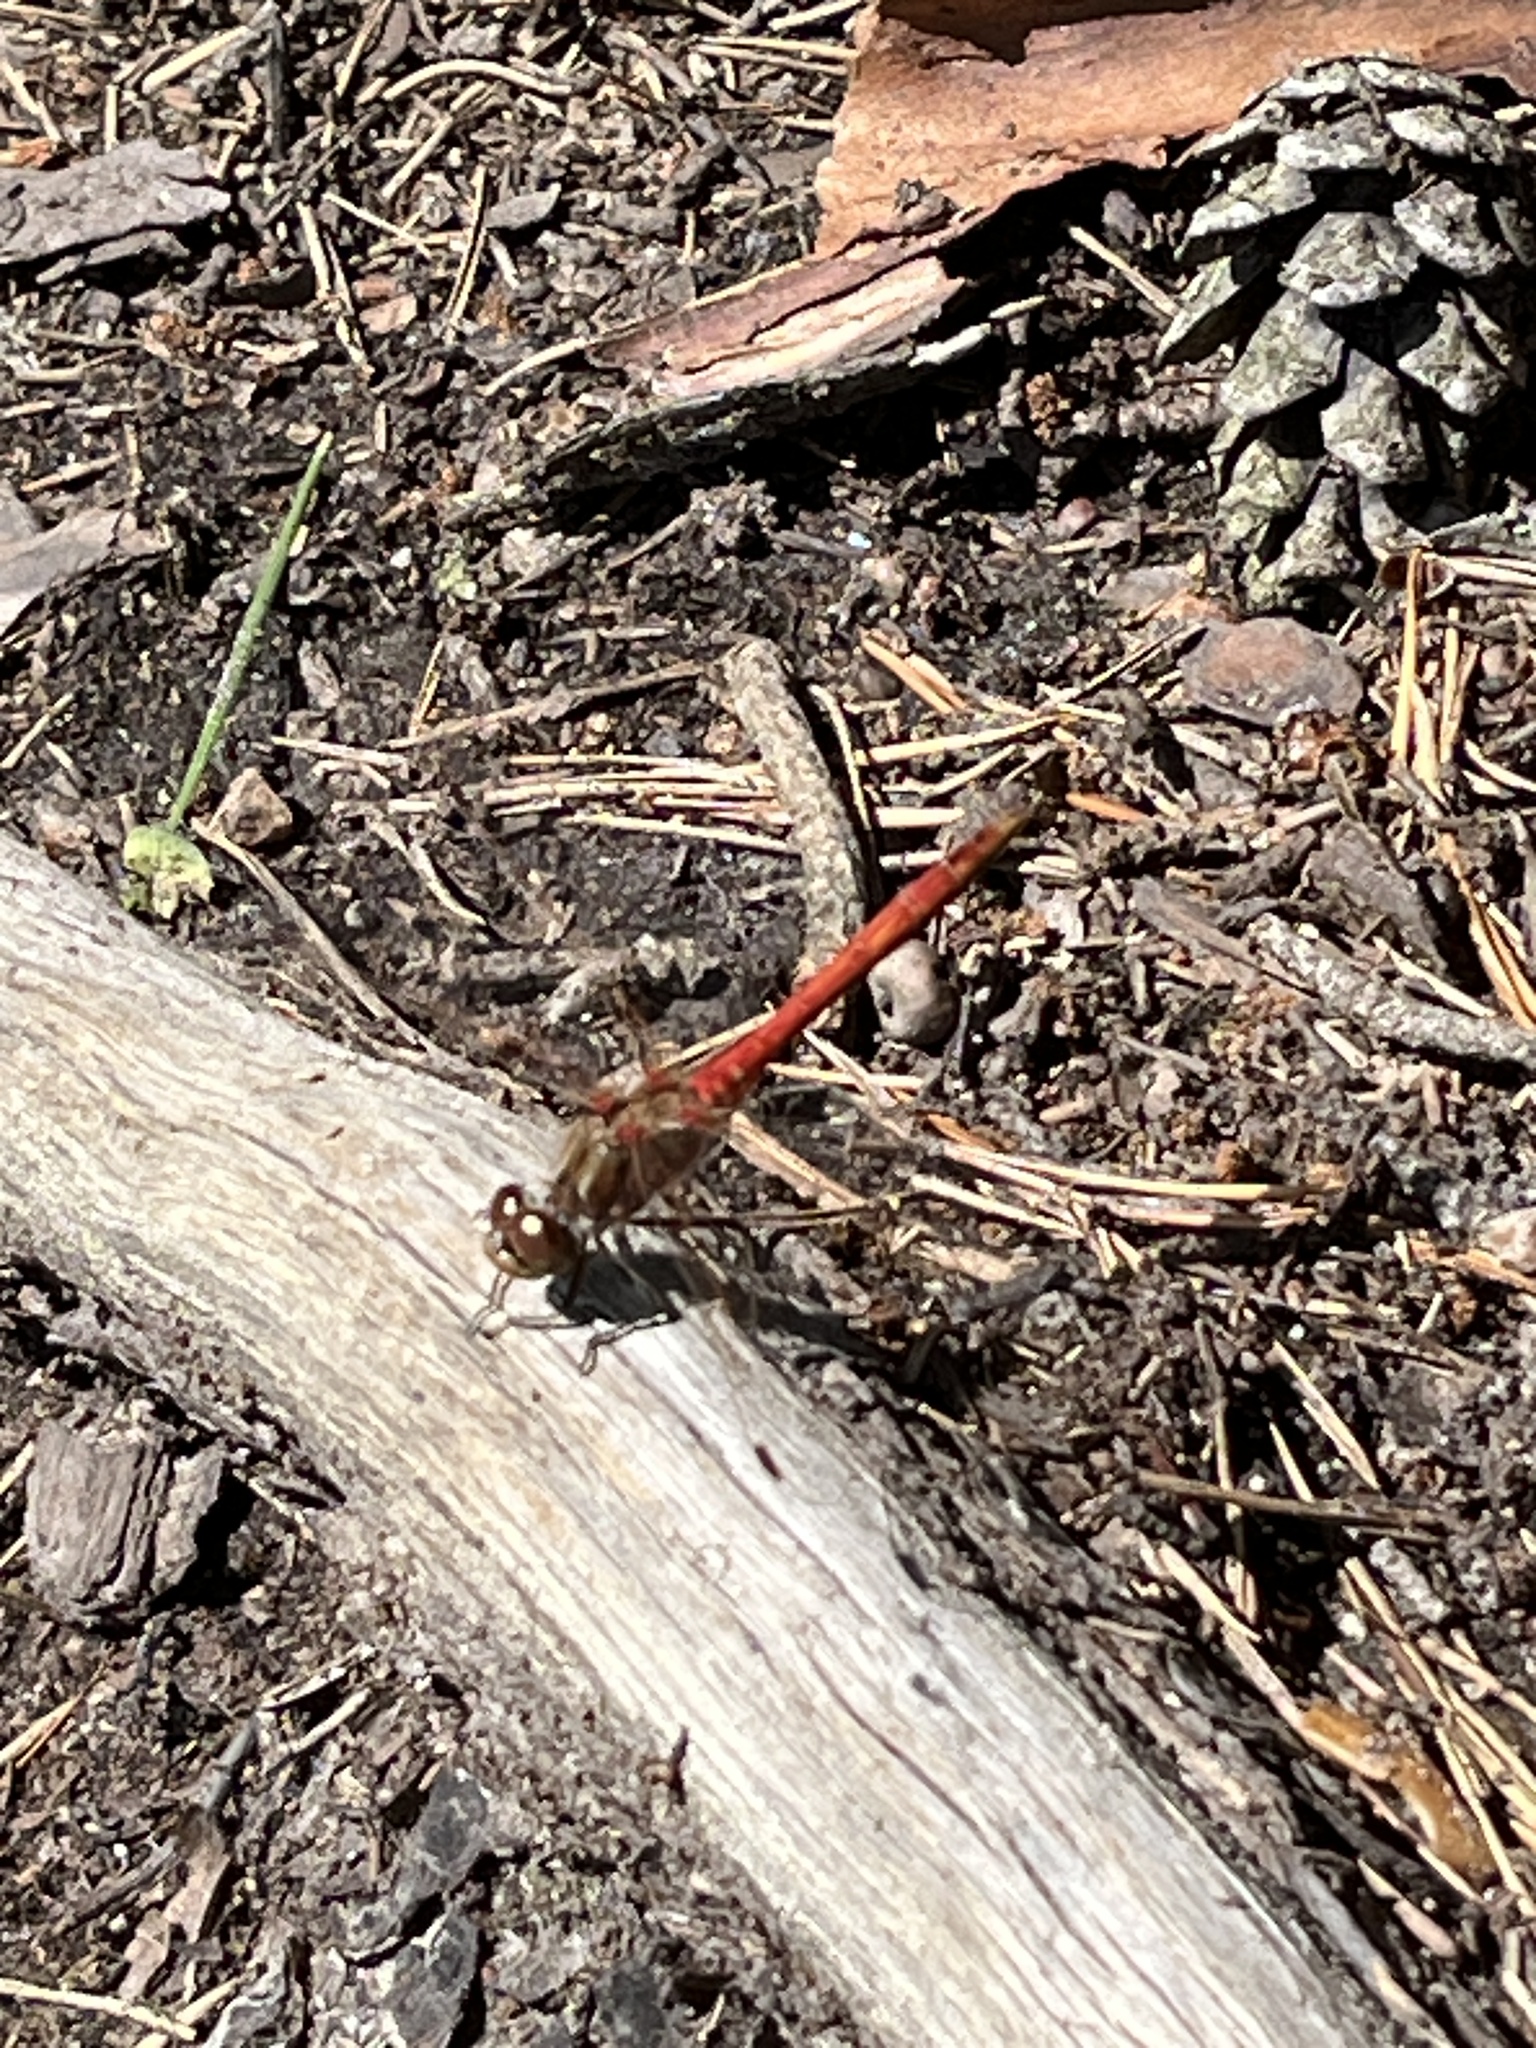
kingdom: Animalia
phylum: Arthropoda
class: Insecta
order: Odonata
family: Libellulidae
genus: Sympetrum
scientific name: Sympetrum vulgatum
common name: Vagrant darter
